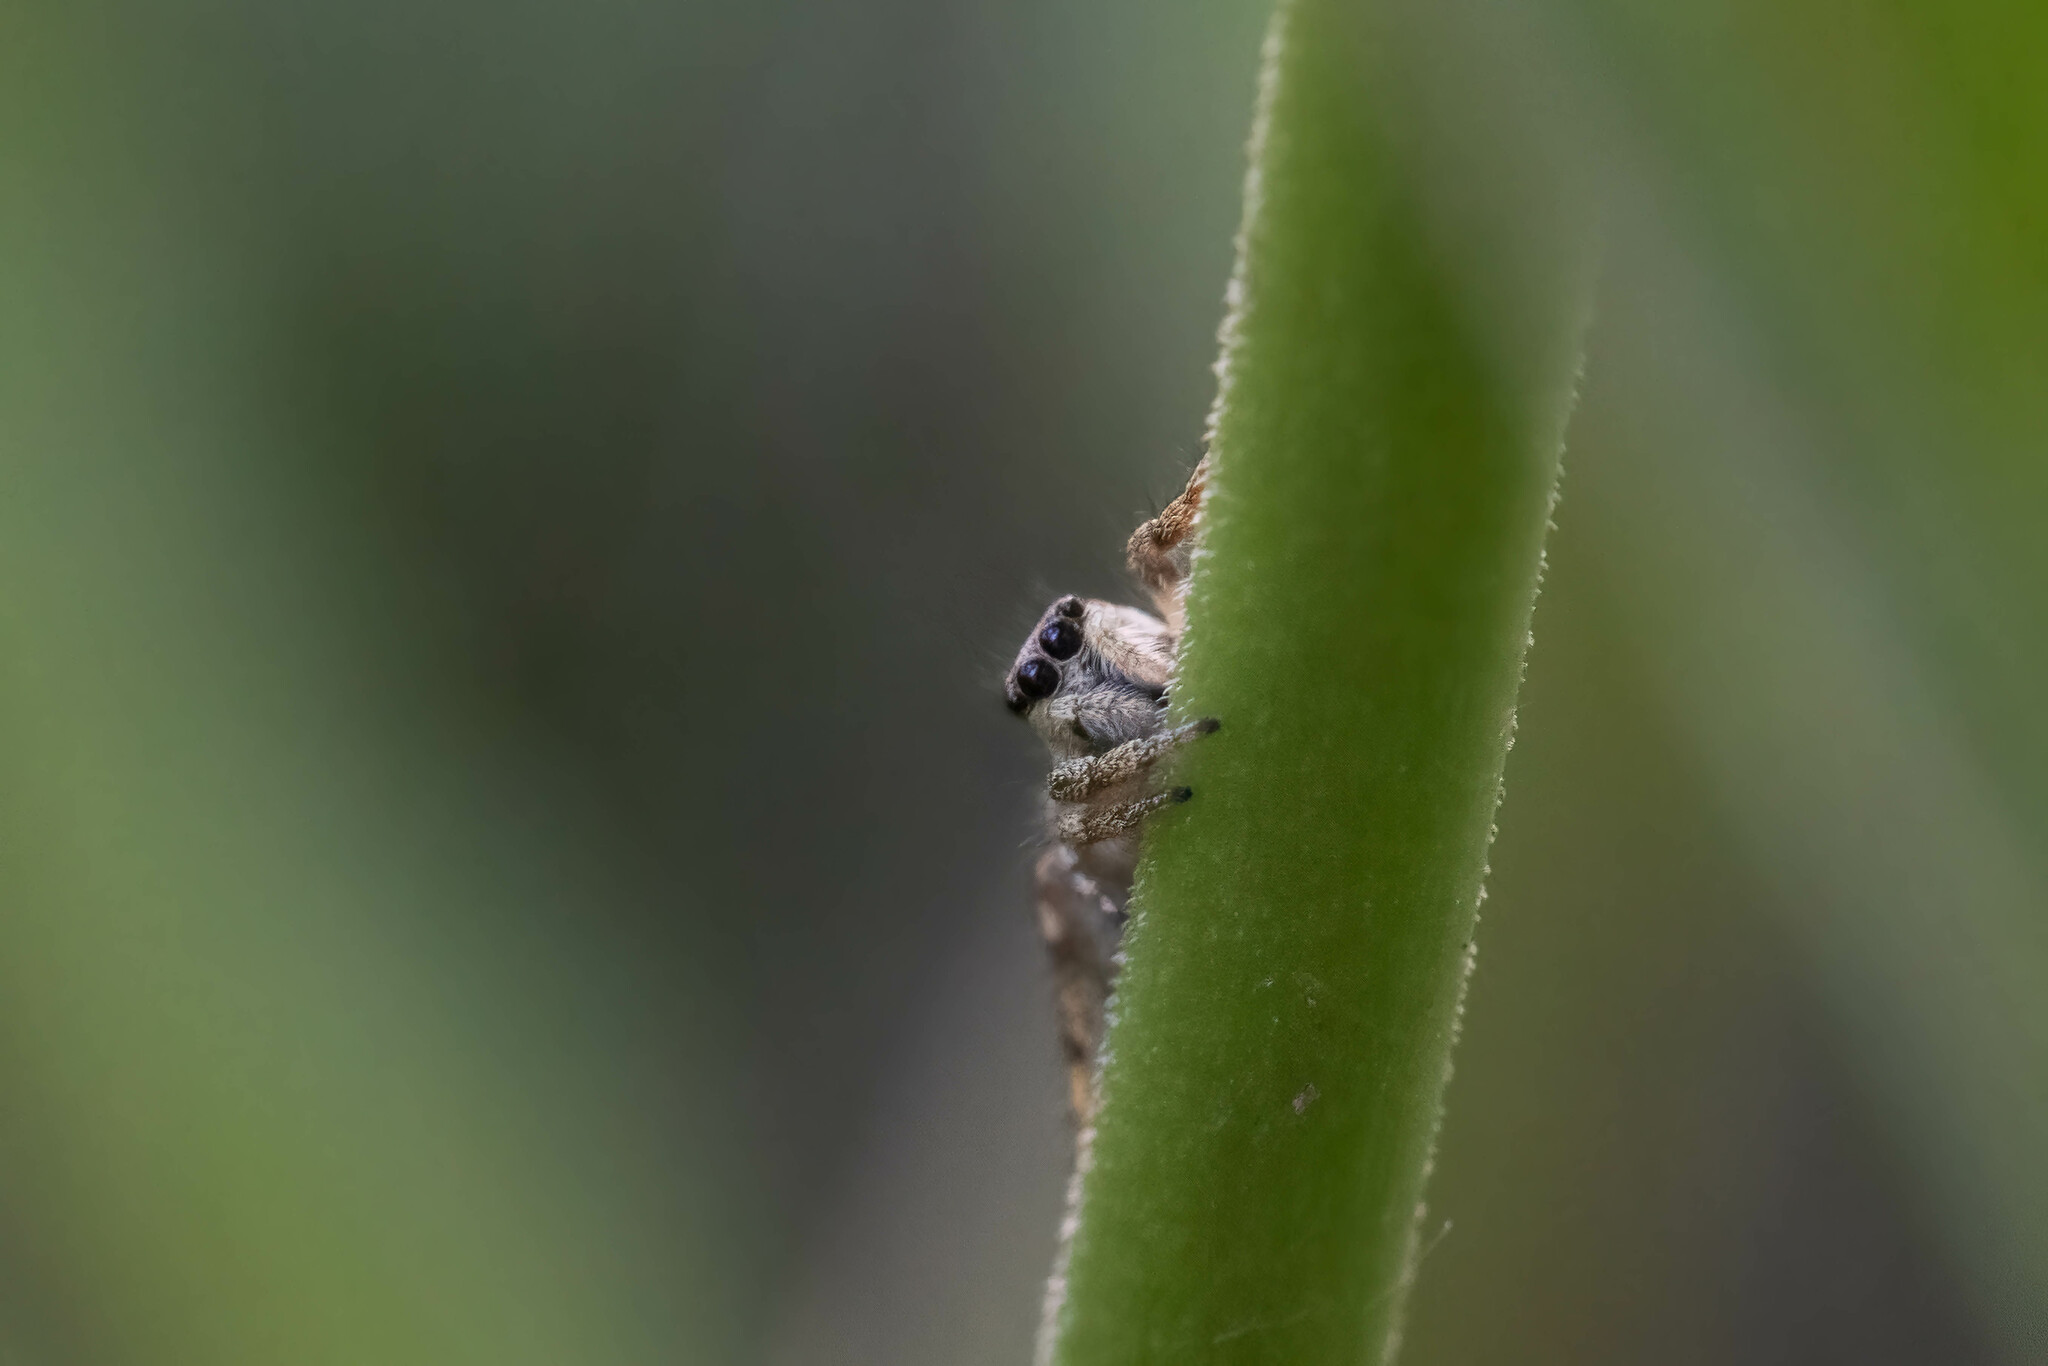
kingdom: Animalia
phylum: Arthropoda
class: Arachnida
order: Araneae
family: Salticidae
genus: Salticus
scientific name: Salticus scenicus
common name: Zebra jumper
